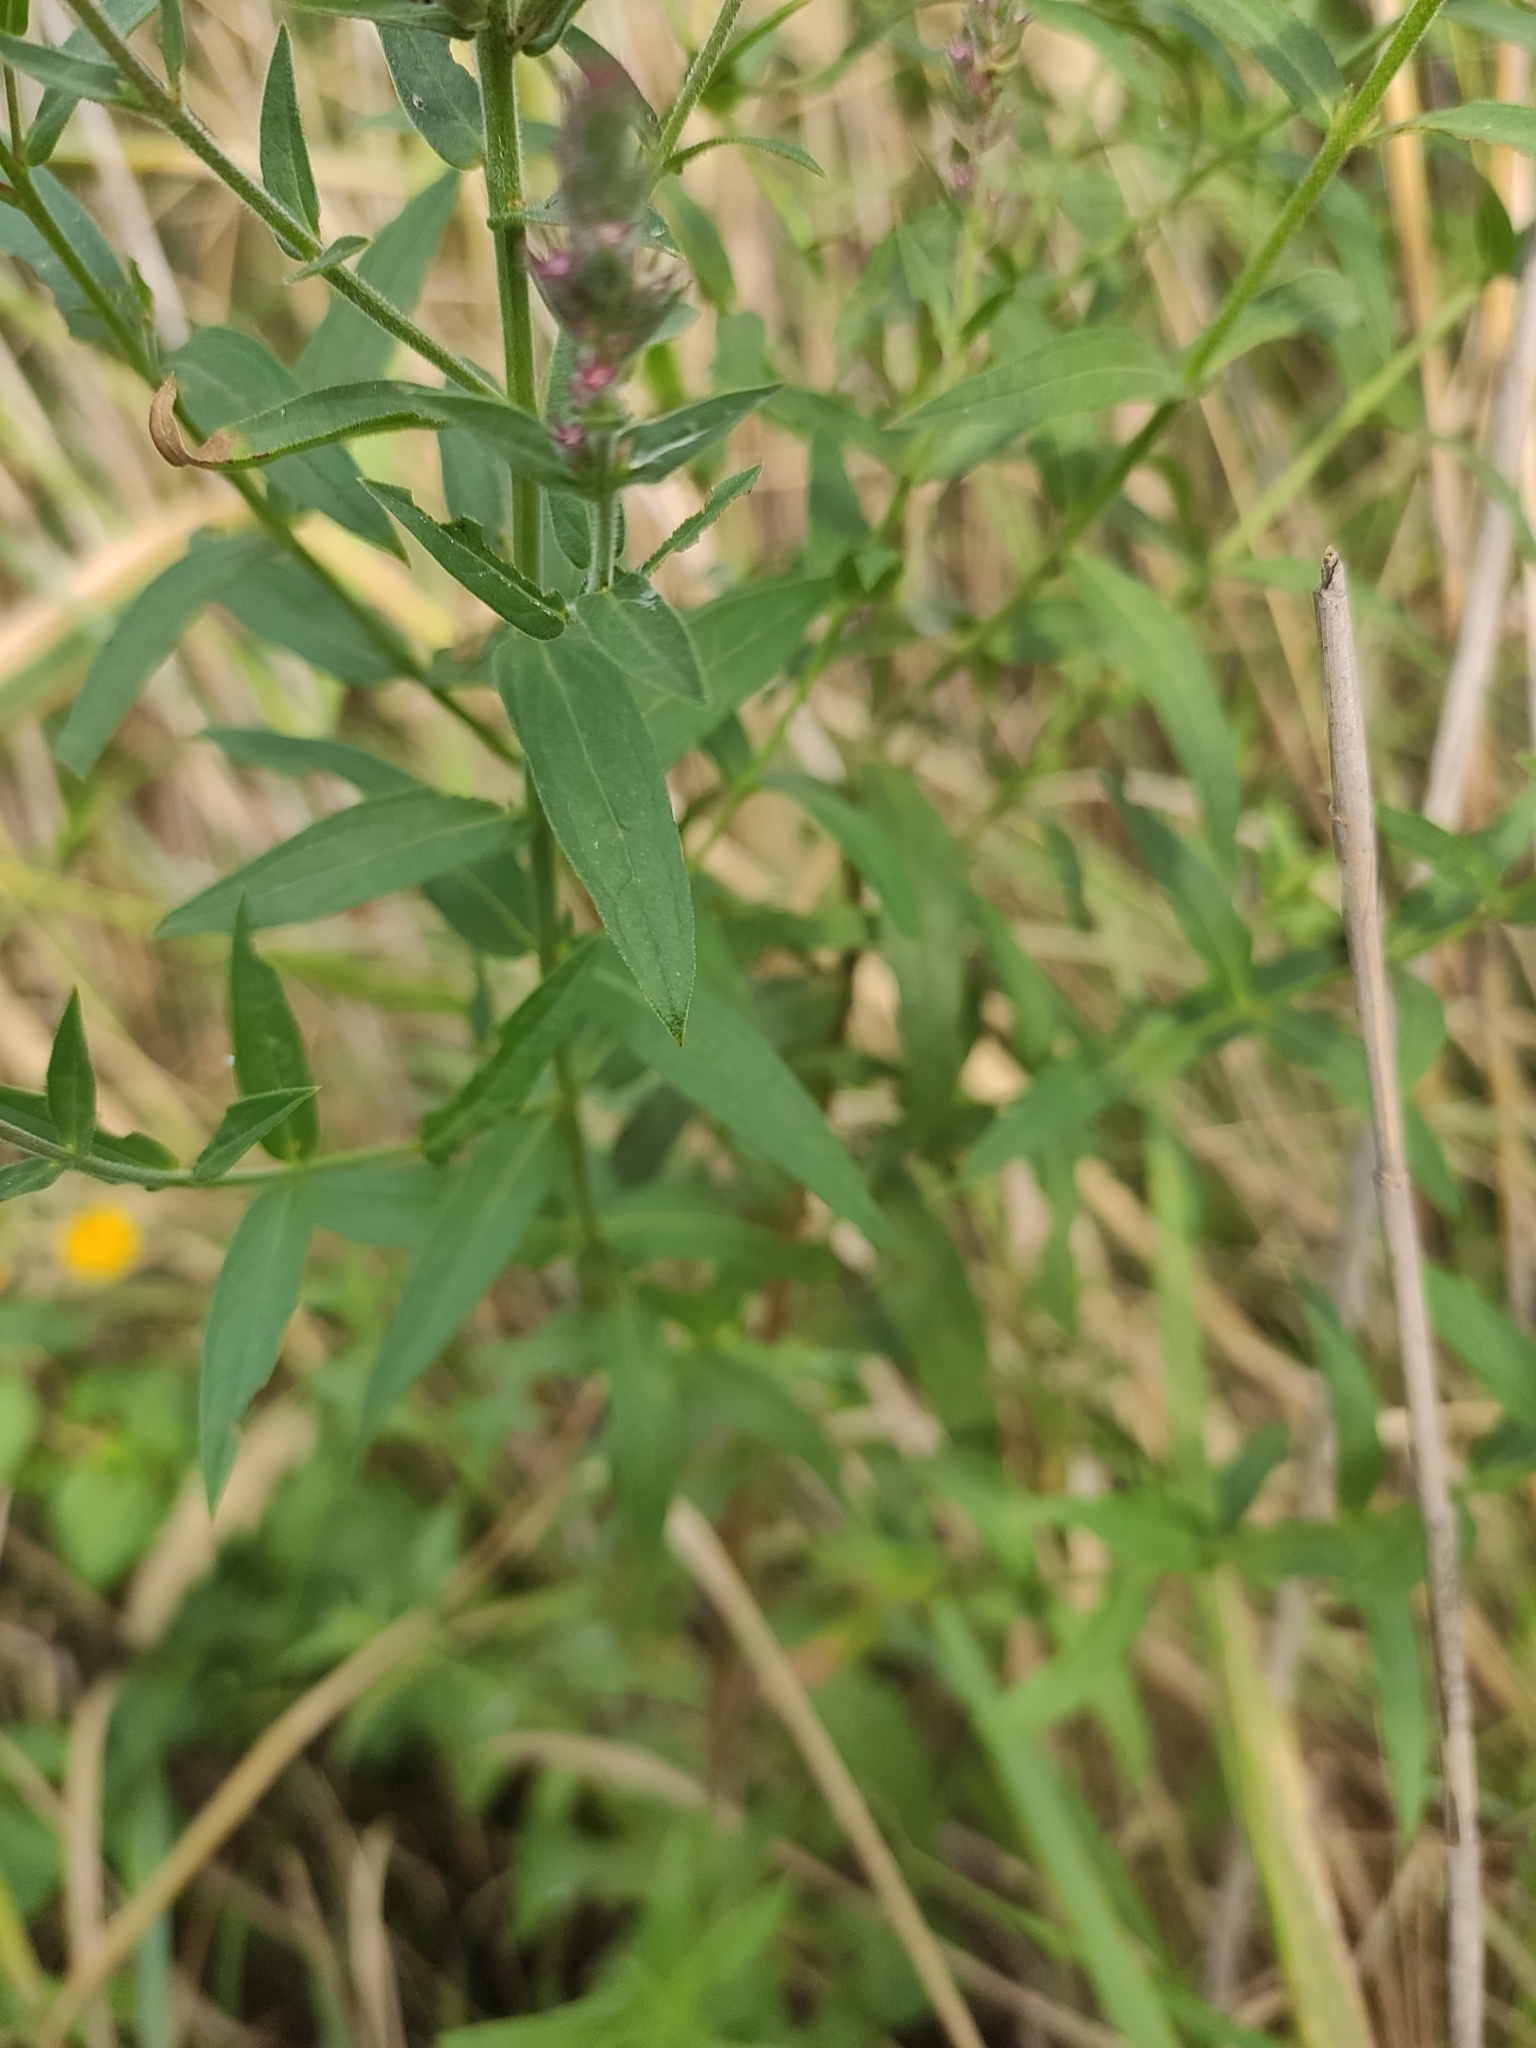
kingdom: Plantae
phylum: Tracheophyta
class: Magnoliopsida
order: Myrtales
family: Lythraceae
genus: Lythrum
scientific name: Lythrum salicaria
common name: Purple loosestrife
